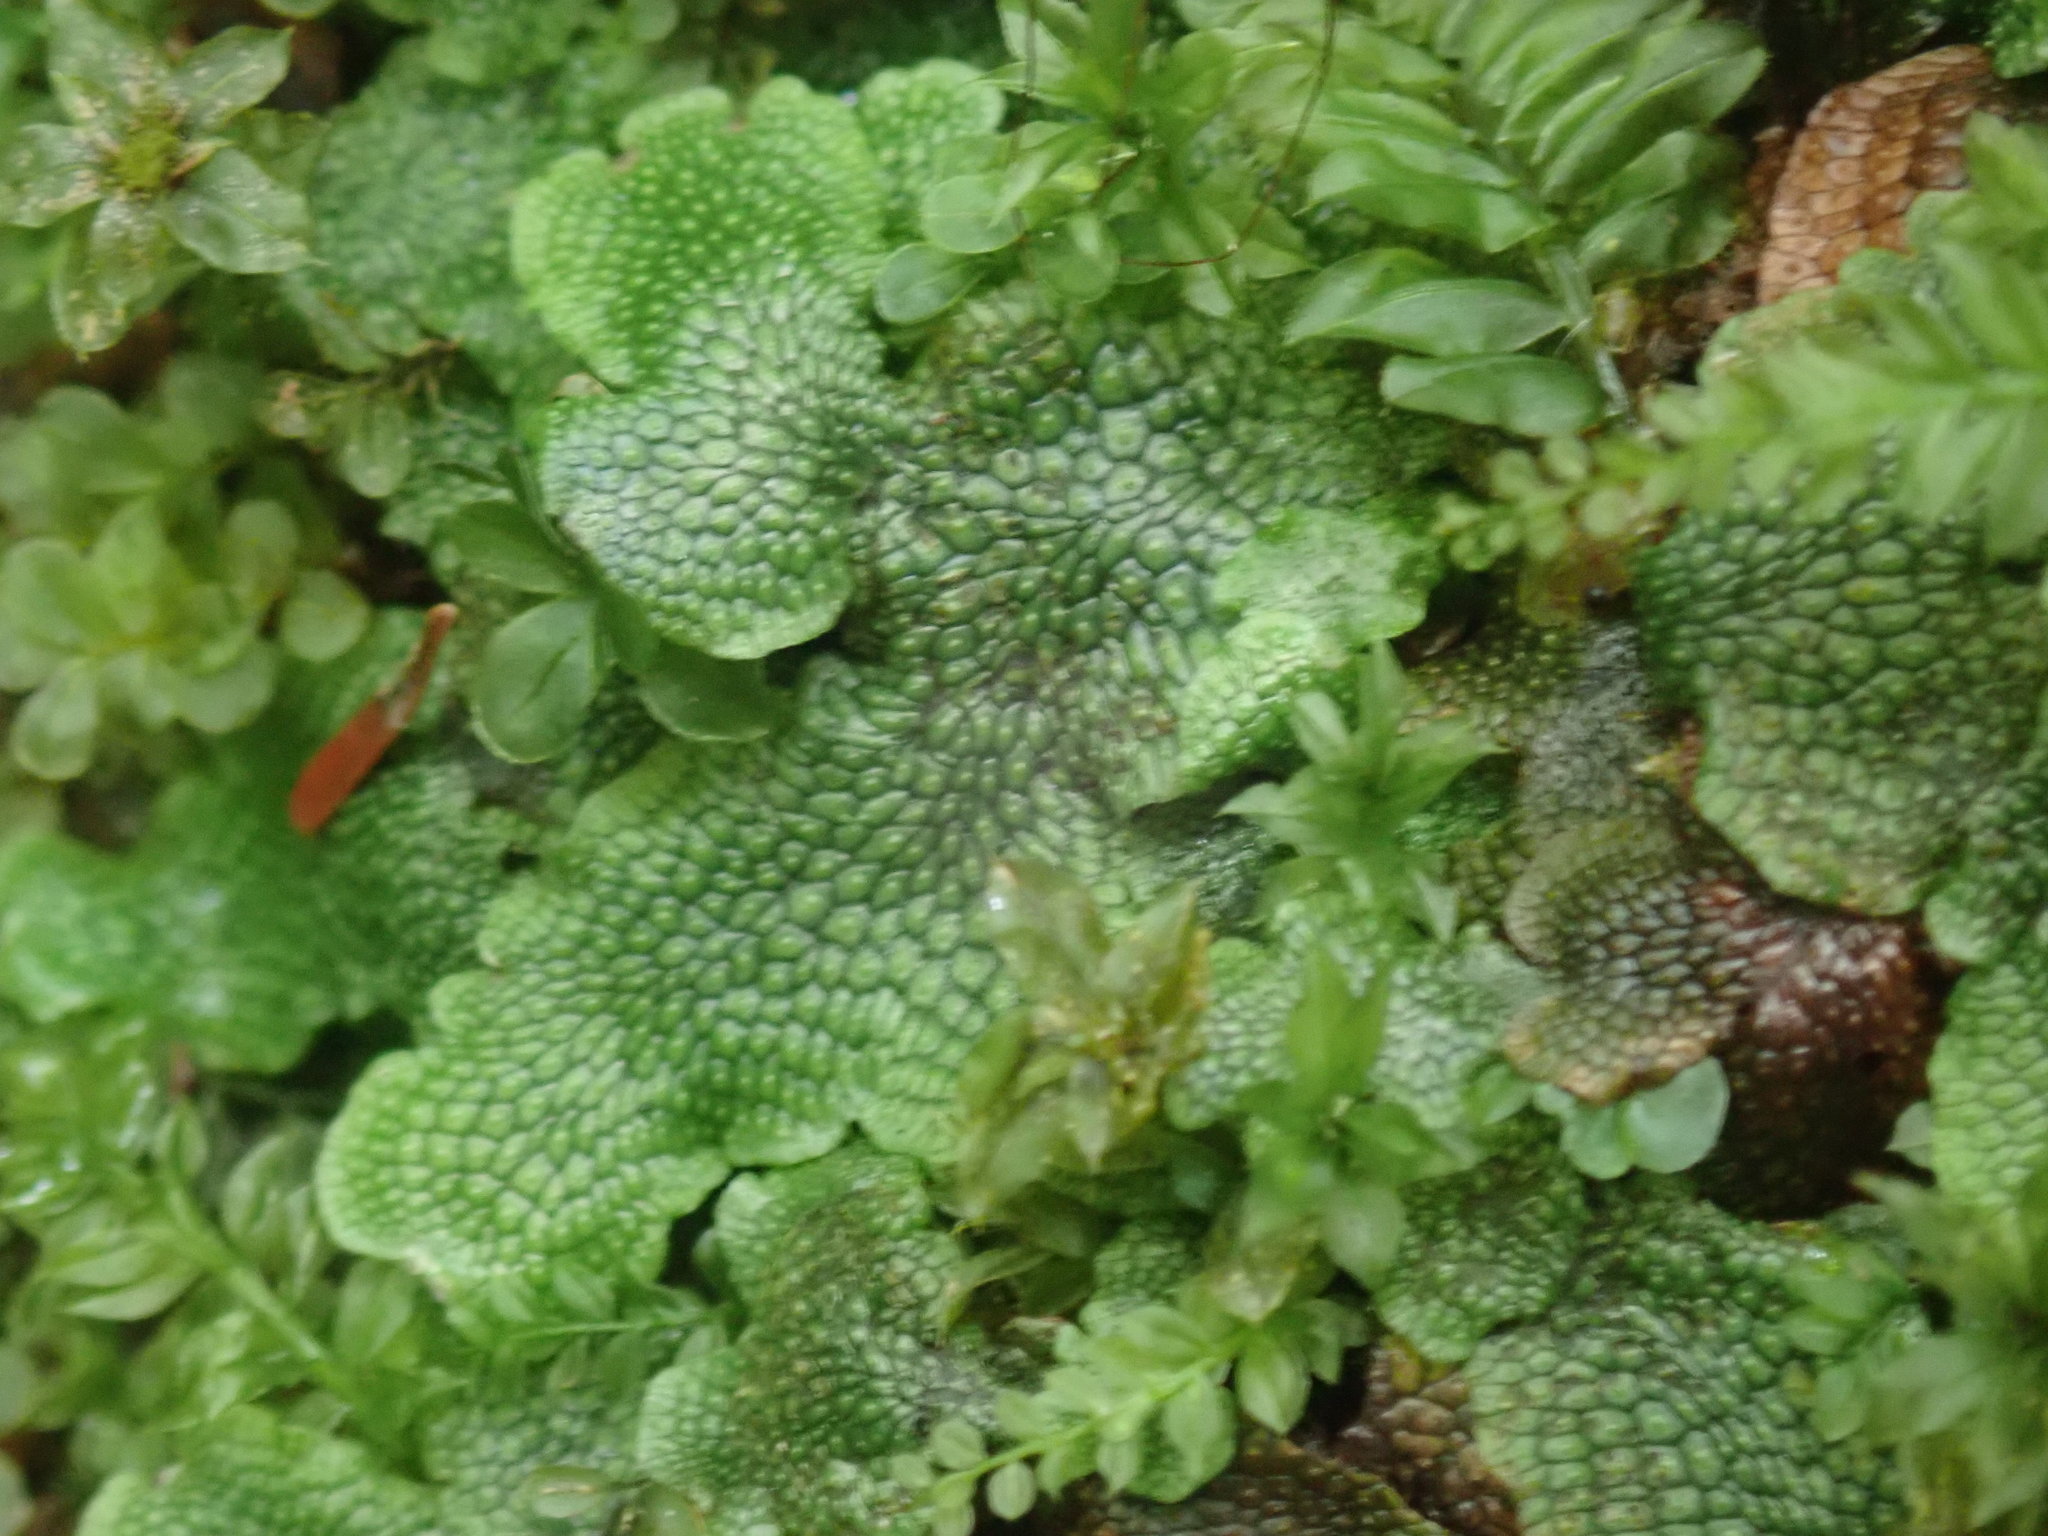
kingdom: Plantae
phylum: Marchantiophyta
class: Marchantiopsida
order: Marchantiales
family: Conocephalaceae
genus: Conocephalum
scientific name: Conocephalum salebrosum
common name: Cat-tongue liverwort
